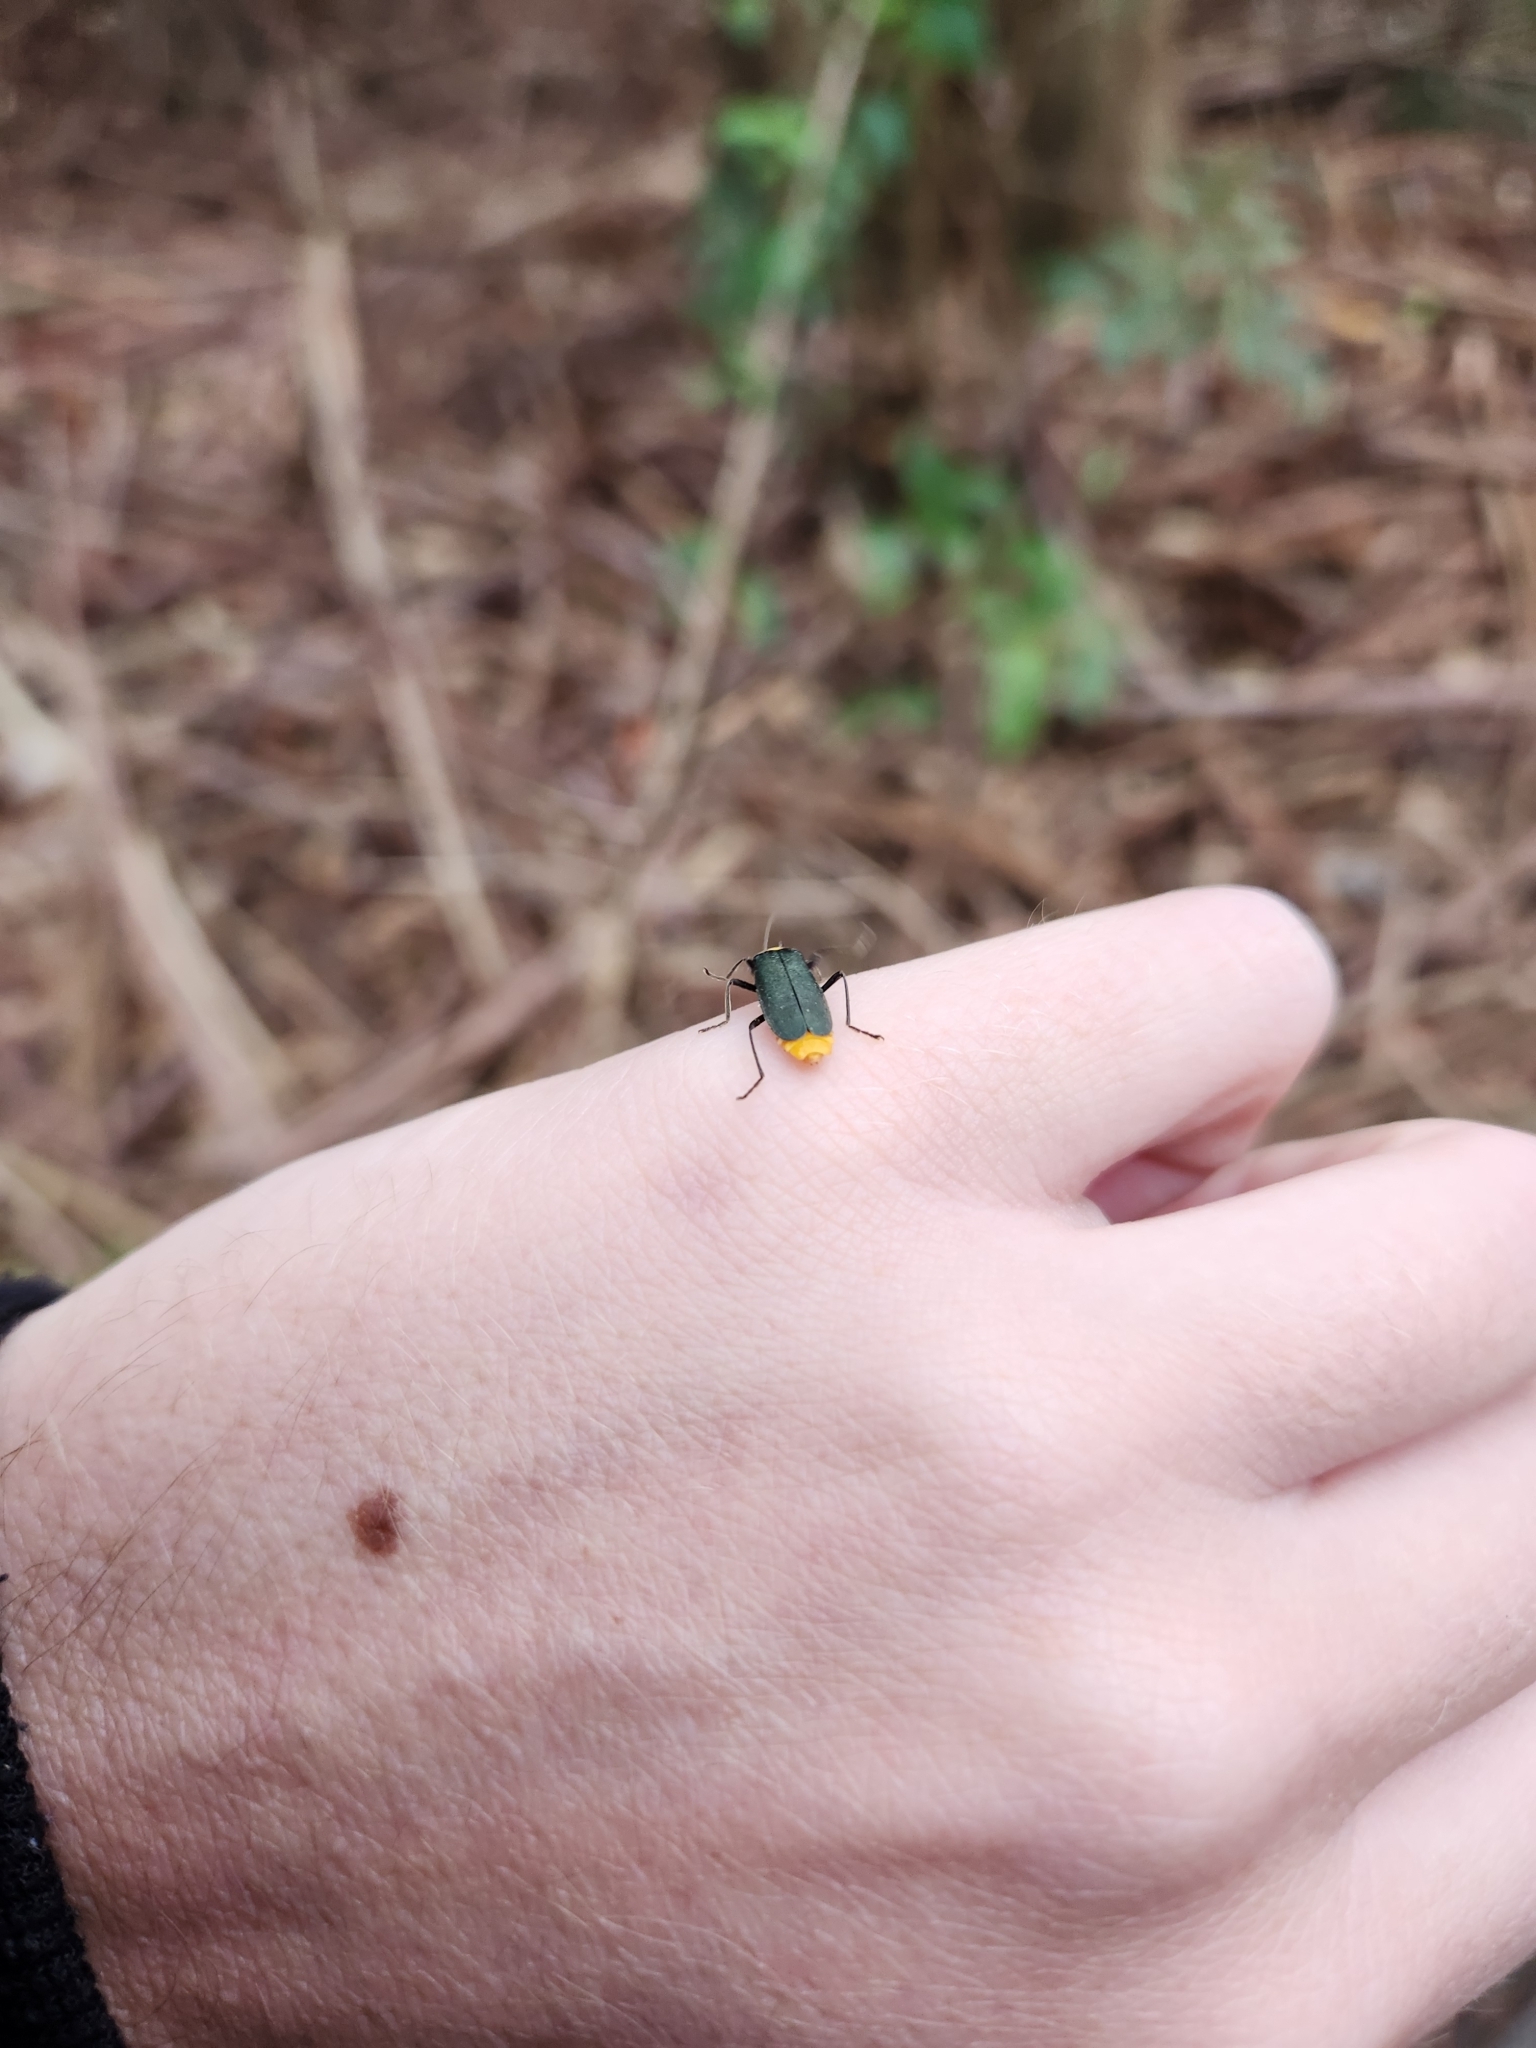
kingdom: Animalia
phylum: Arthropoda
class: Insecta
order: Coleoptera
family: Cantharidae
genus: Chauliognathus
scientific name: Chauliognathus
